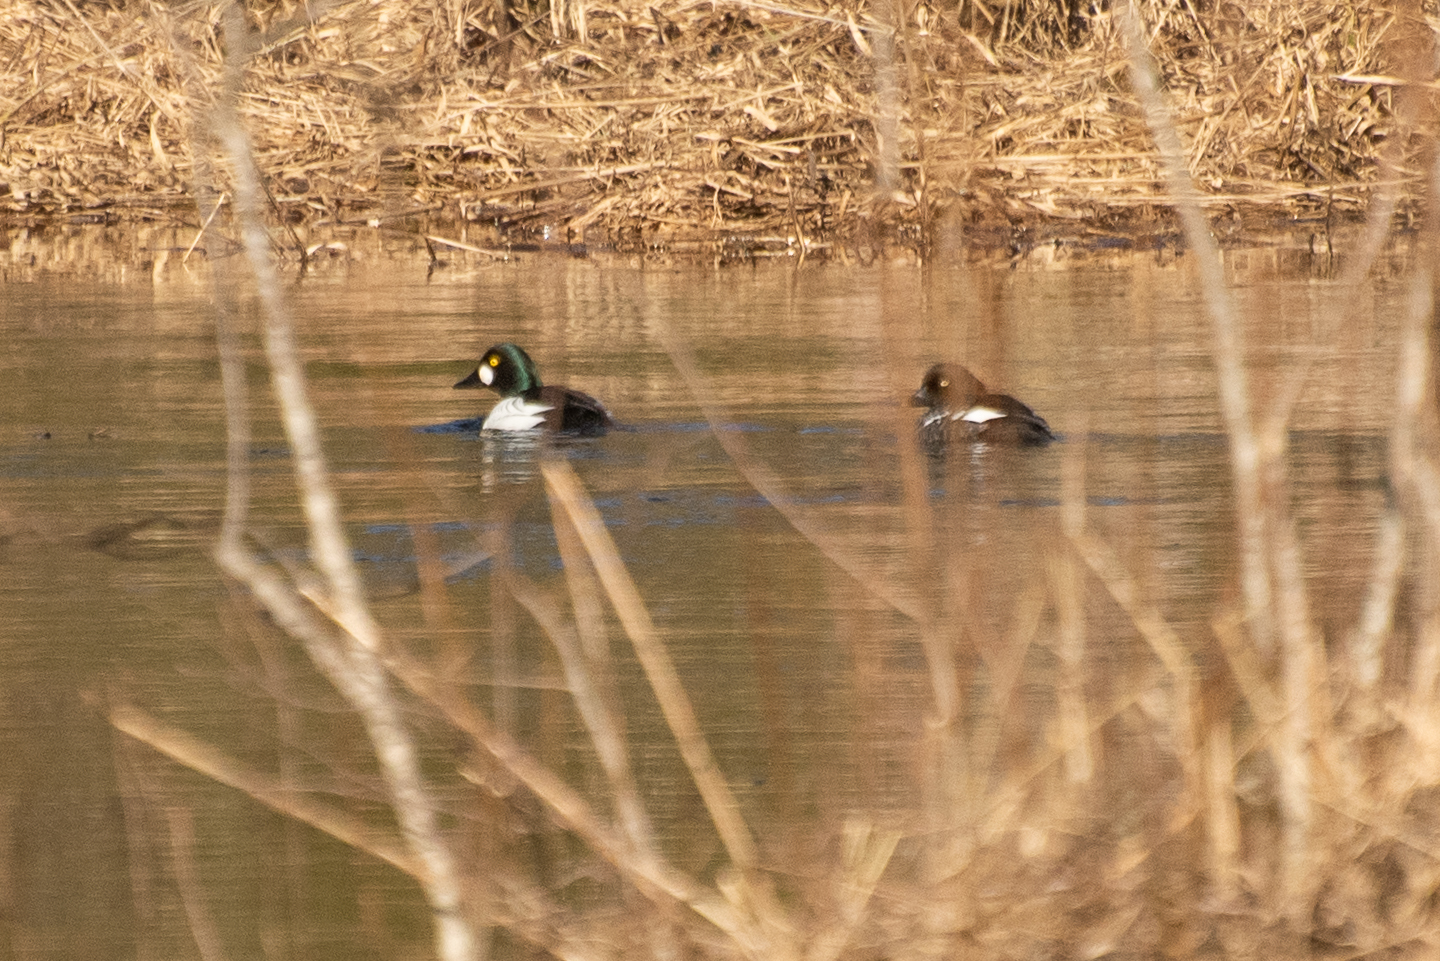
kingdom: Animalia
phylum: Chordata
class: Aves
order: Anseriformes
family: Anatidae
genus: Bucephala
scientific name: Bucephala clangula
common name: Common goldeneye
